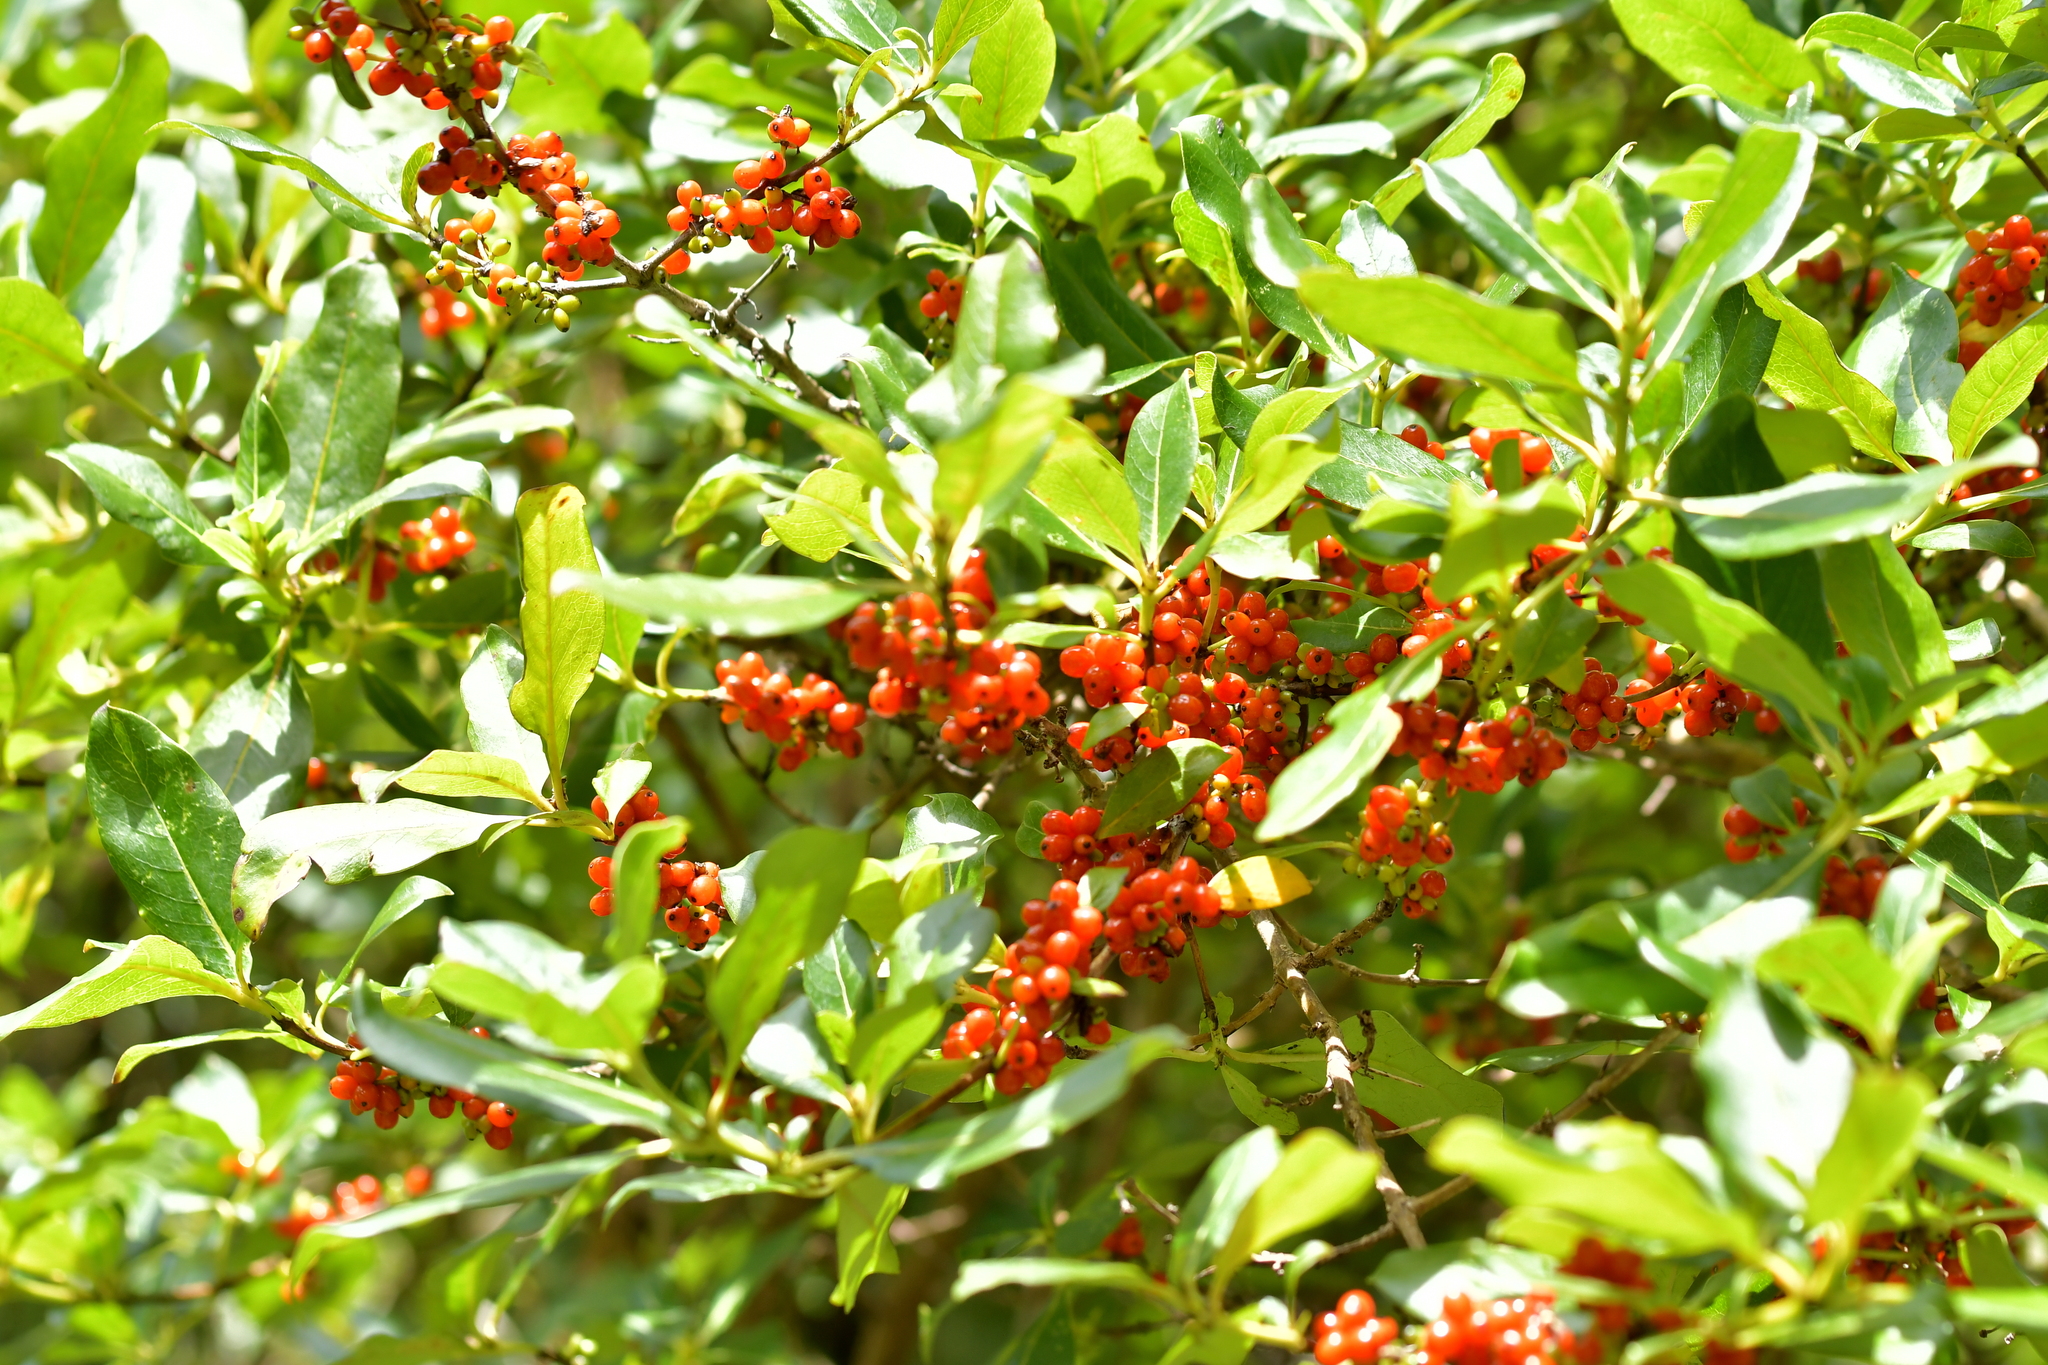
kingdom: Plantae
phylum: Tracheophyta
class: Magnoliopsida
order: Gentianales
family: Rubiaceae
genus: Coprosma
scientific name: Coprosma autumnalis
